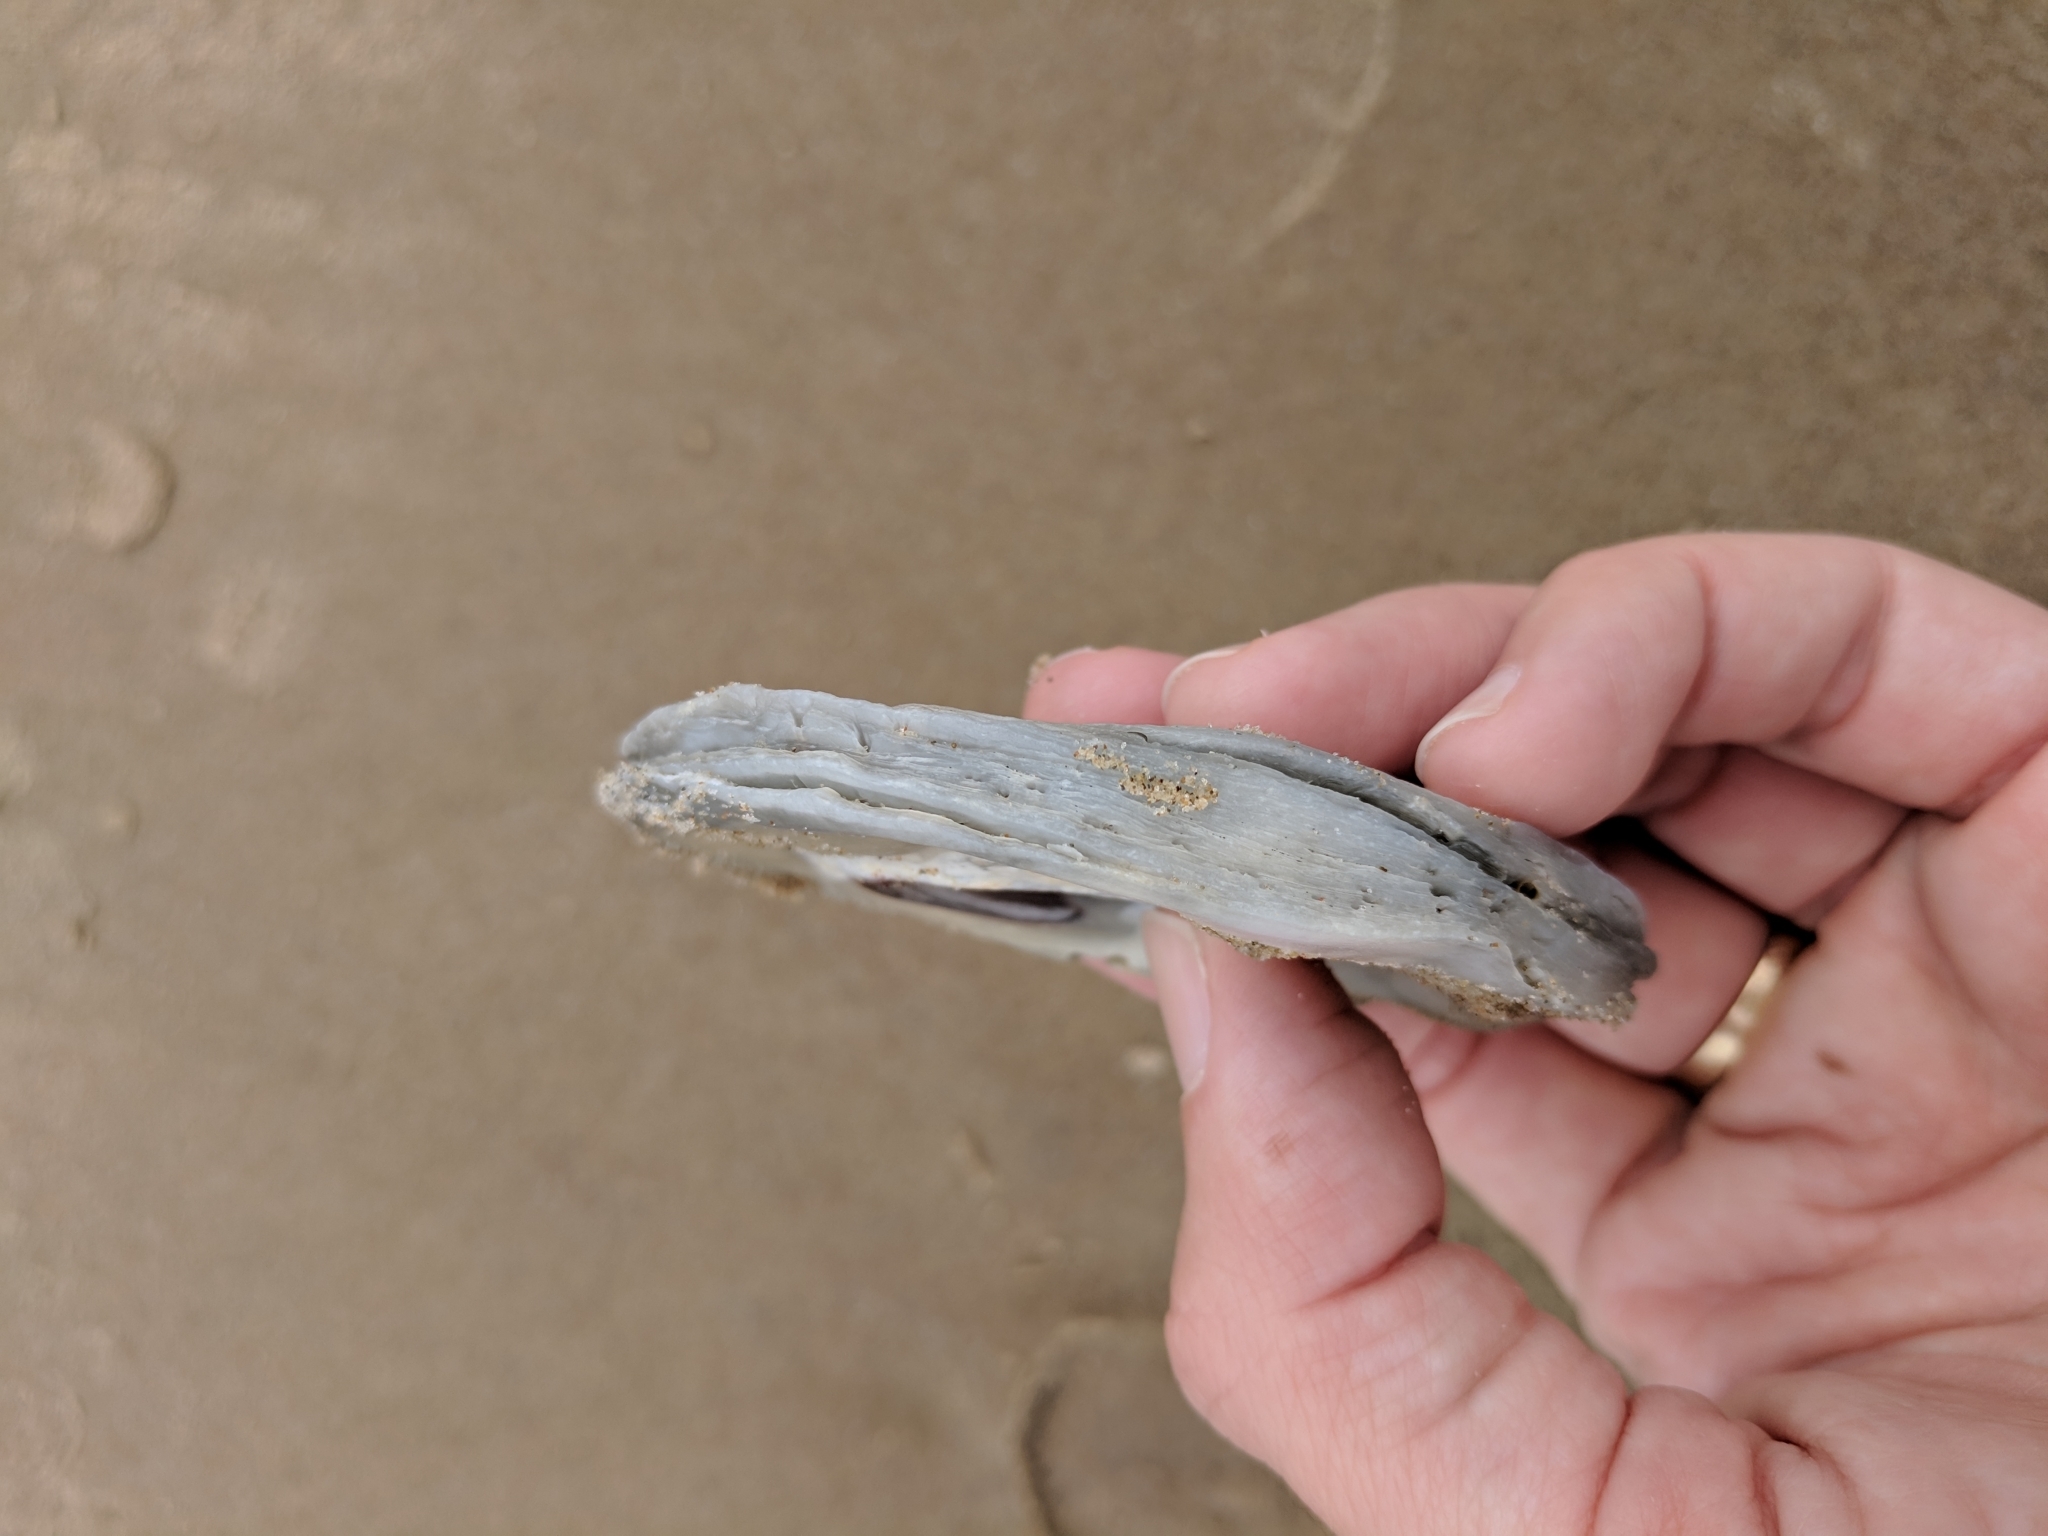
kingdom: Animalia
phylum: Mollusca
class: Bivalvia
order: Ostreida
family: Ostreidae
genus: Crassostrea
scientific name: Crassostrea virginica
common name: American oyster
